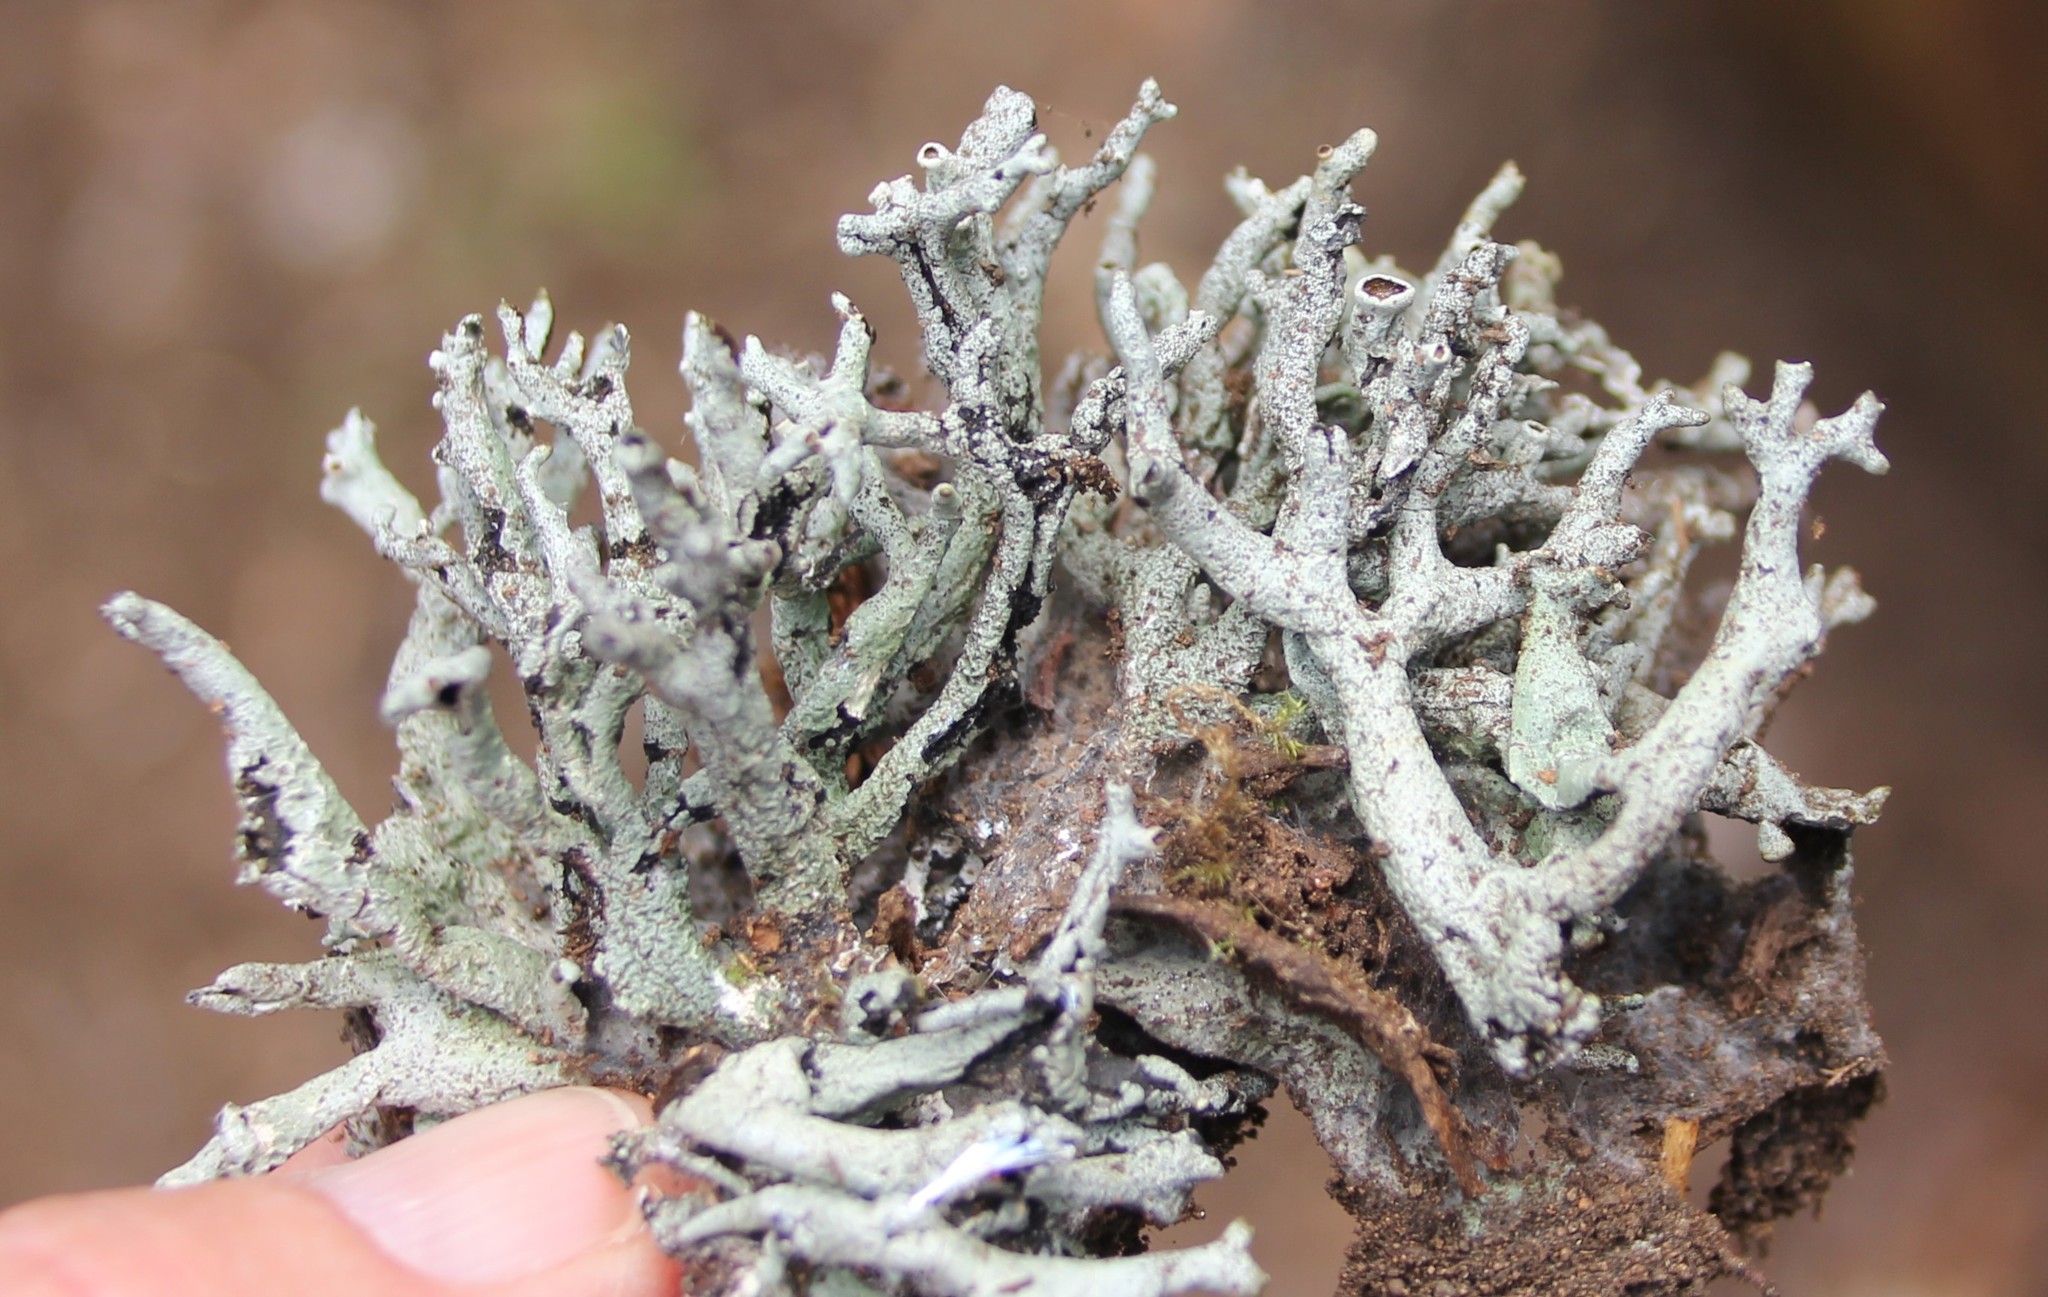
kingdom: Fungi
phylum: Ascomycota
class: Lecanoromycetes
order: Lecanorales
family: Parmeliaceae
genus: Hypogymnia
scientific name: Hypogymnia imshaugii
